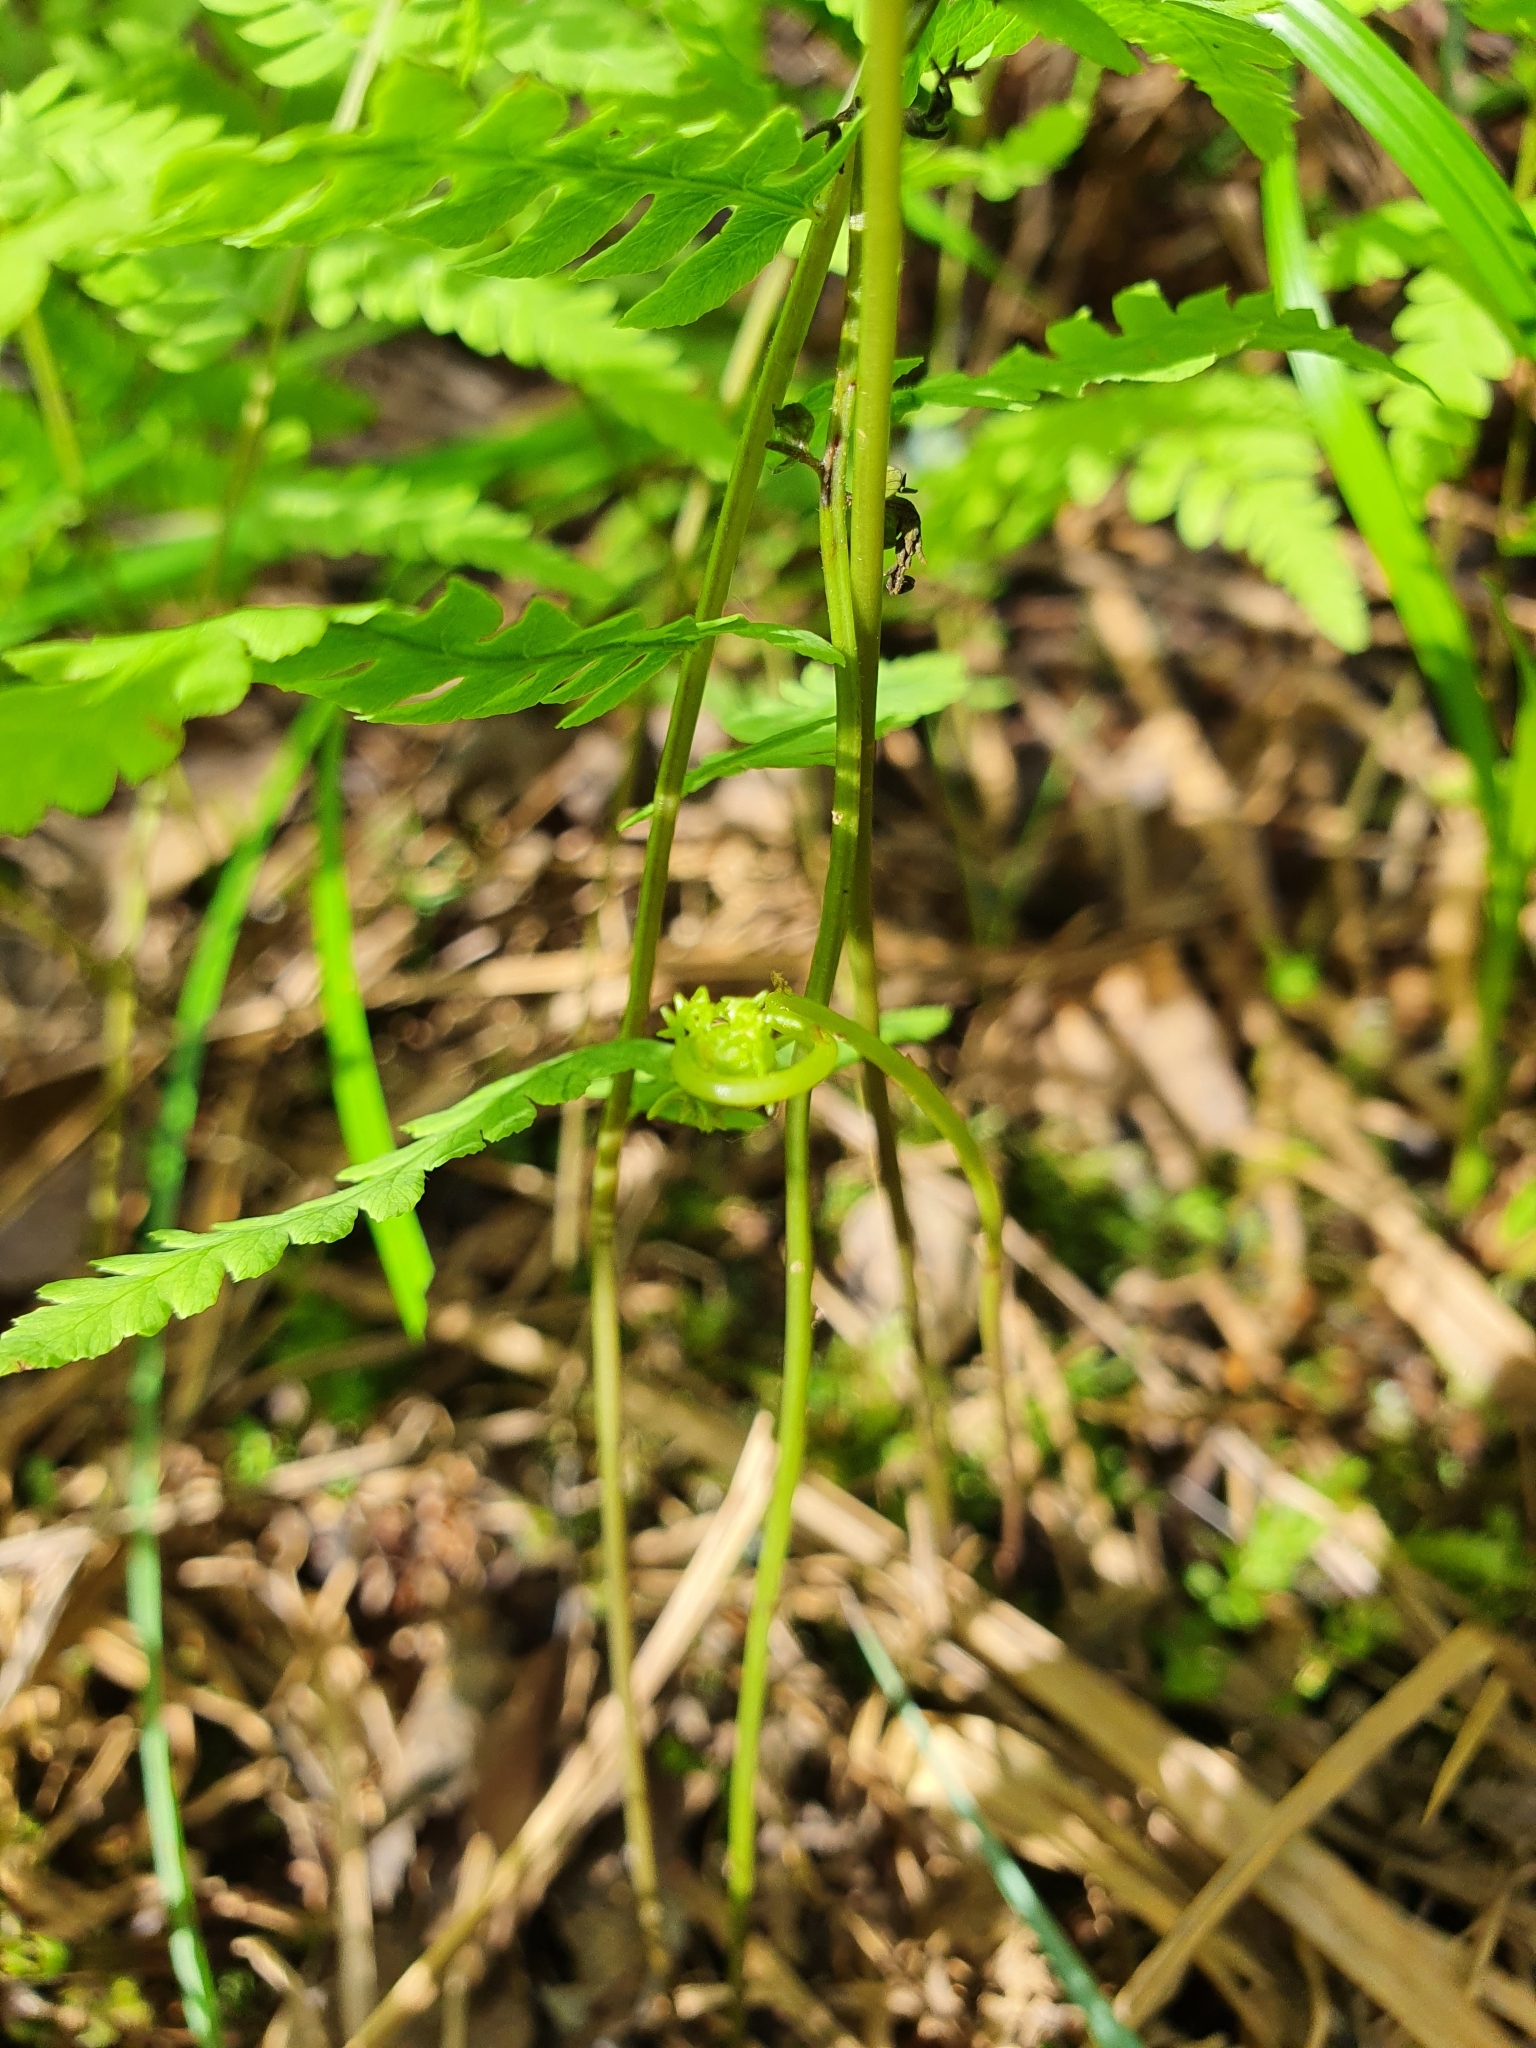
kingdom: Plantae
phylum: Tracheophyta
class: Polypodiopsida
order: Polypodiales
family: Thelypteridaceae
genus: Thelypteris
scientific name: Thelypteris palustris
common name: Marsh fern
